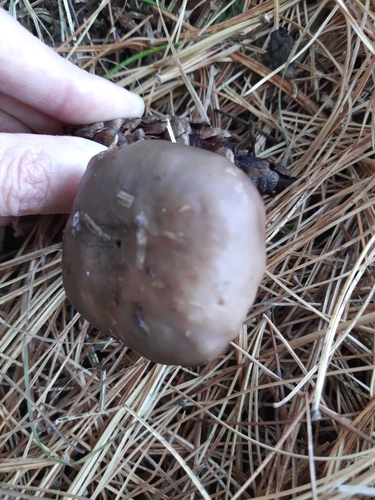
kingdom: Fungi
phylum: Basidiomycota
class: Agaricomycetes
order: Agaricales
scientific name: Agaricales
